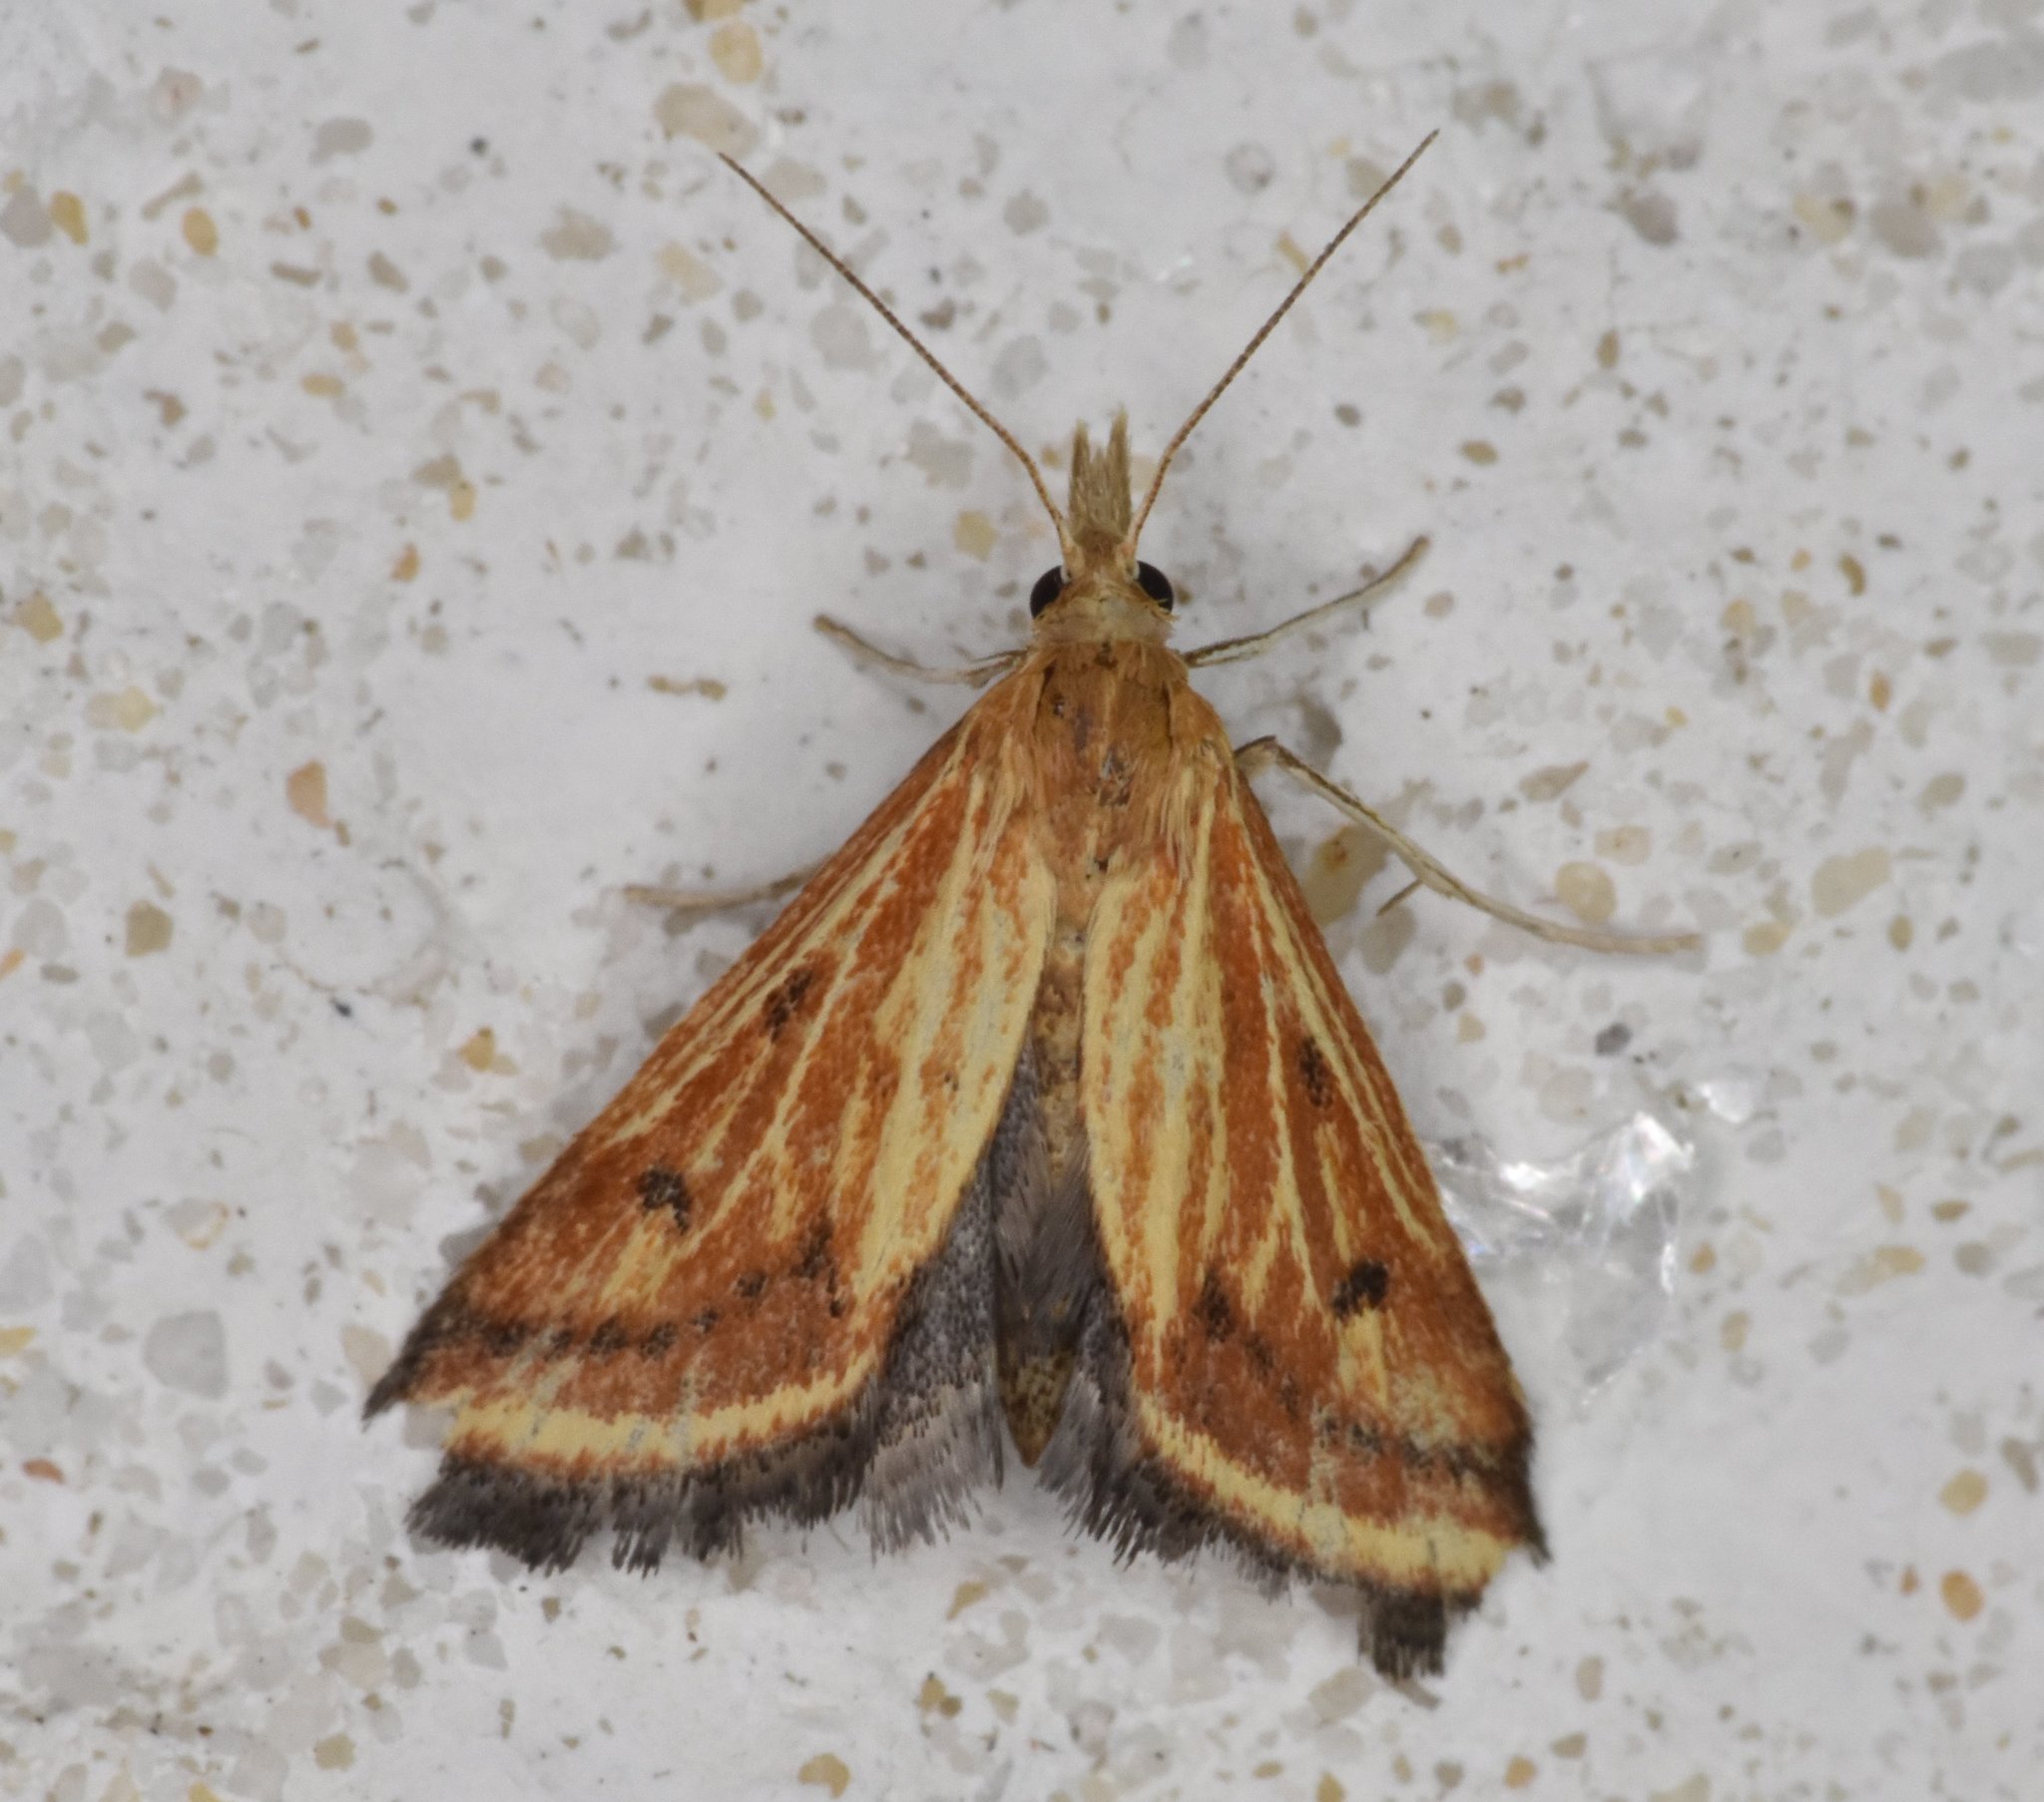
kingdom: Animalia
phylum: Arthropoda
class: Insecta
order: Lepidoptera
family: Crambidae
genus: Microtheoris
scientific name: Microtheoris ophionalis
